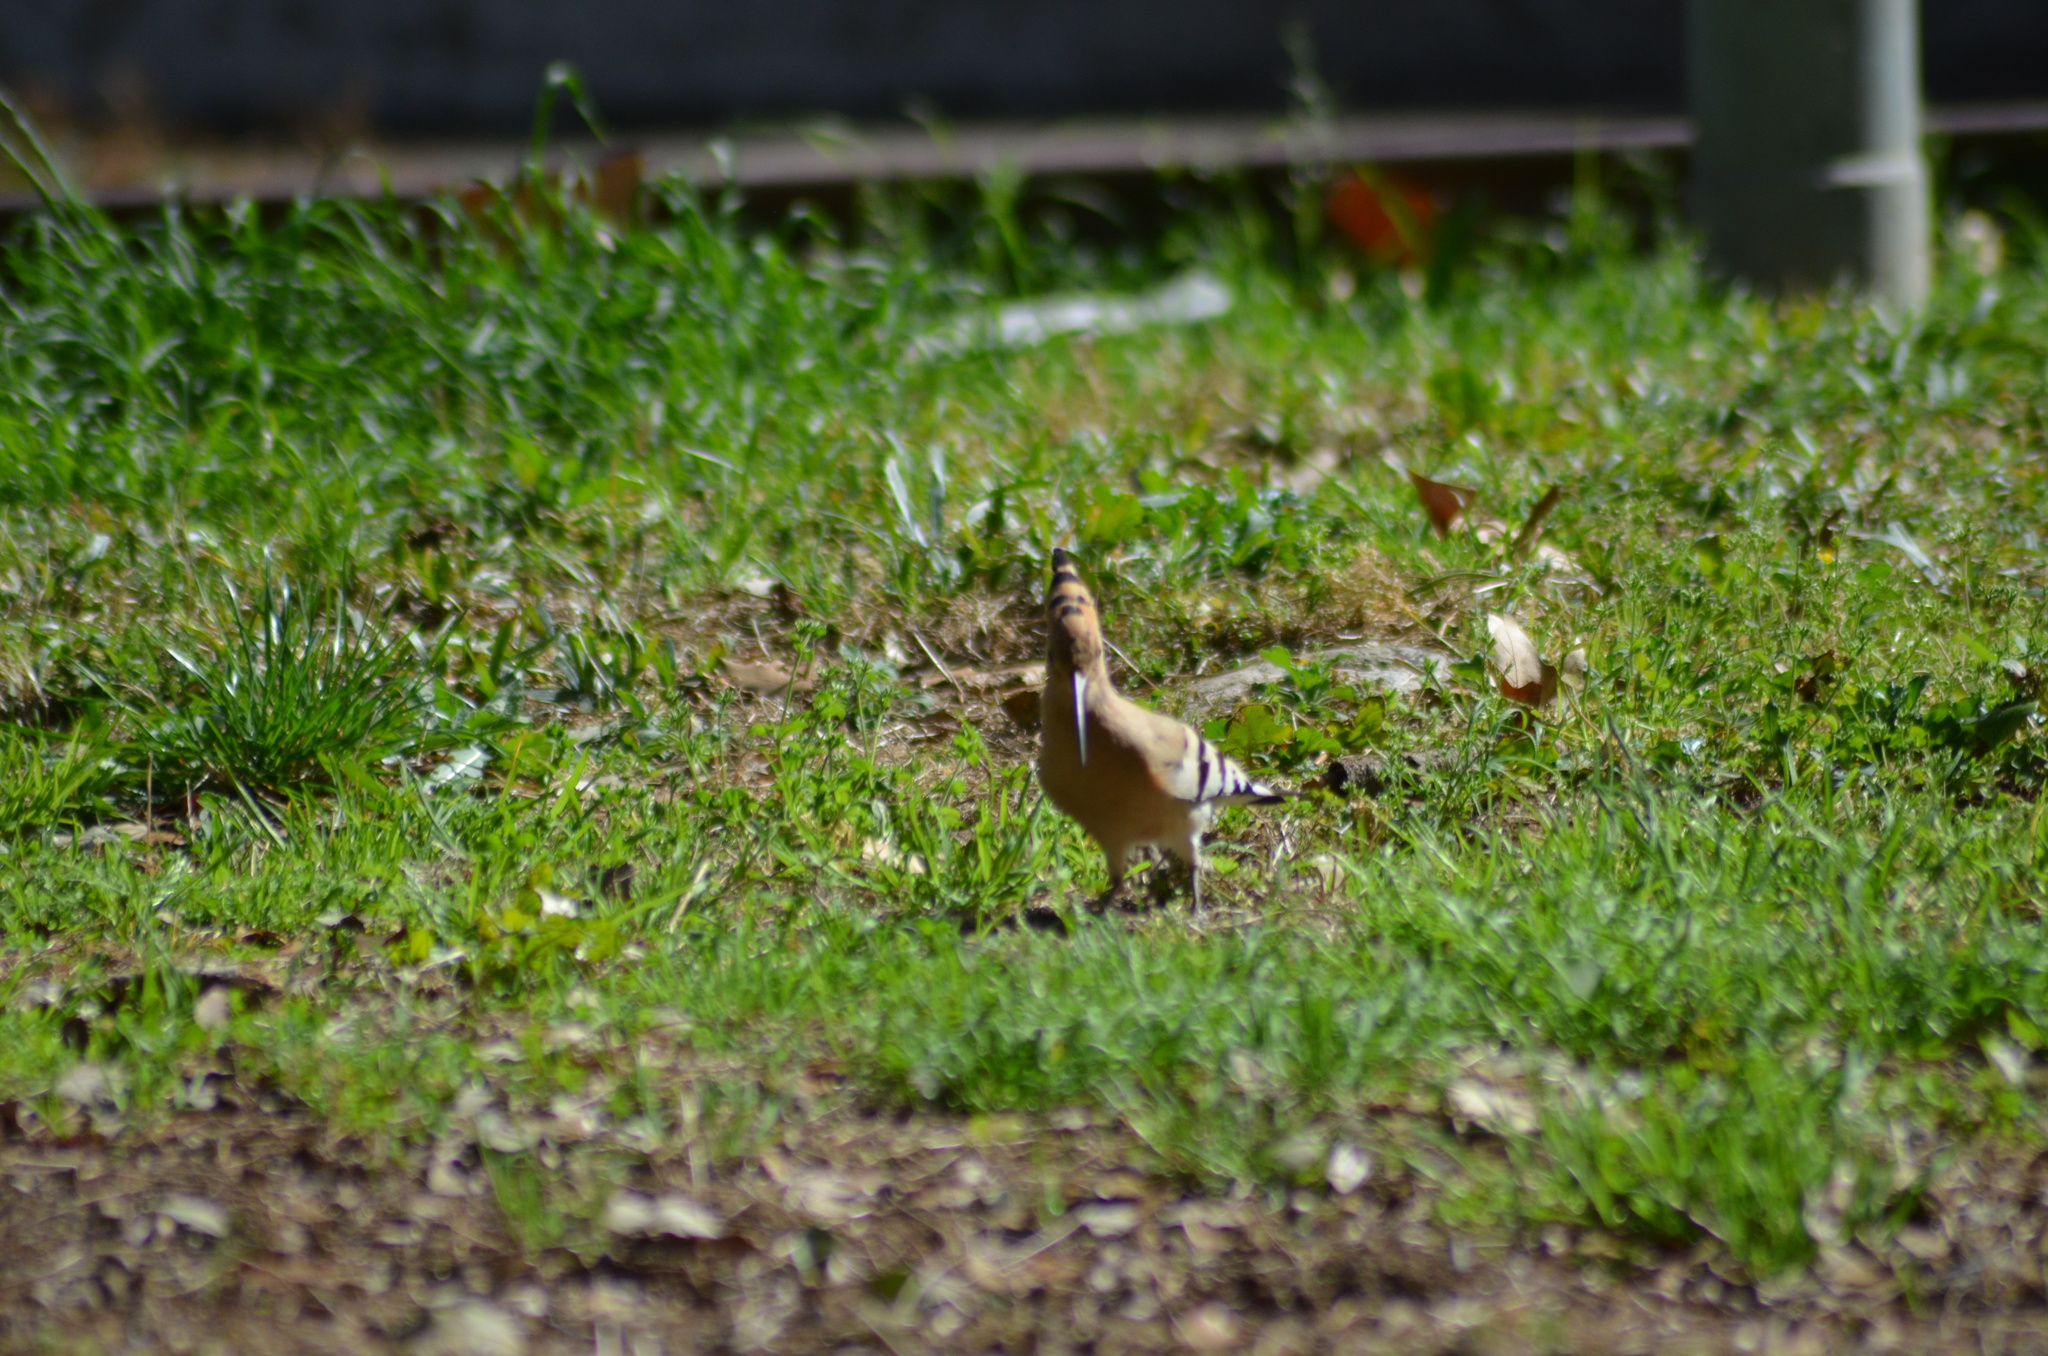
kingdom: Animalia
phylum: Chordata
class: Aves
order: Bucerotiformes
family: Upupidae
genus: Upupa
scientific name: Upupa epops
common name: Eurasian hoopoe
